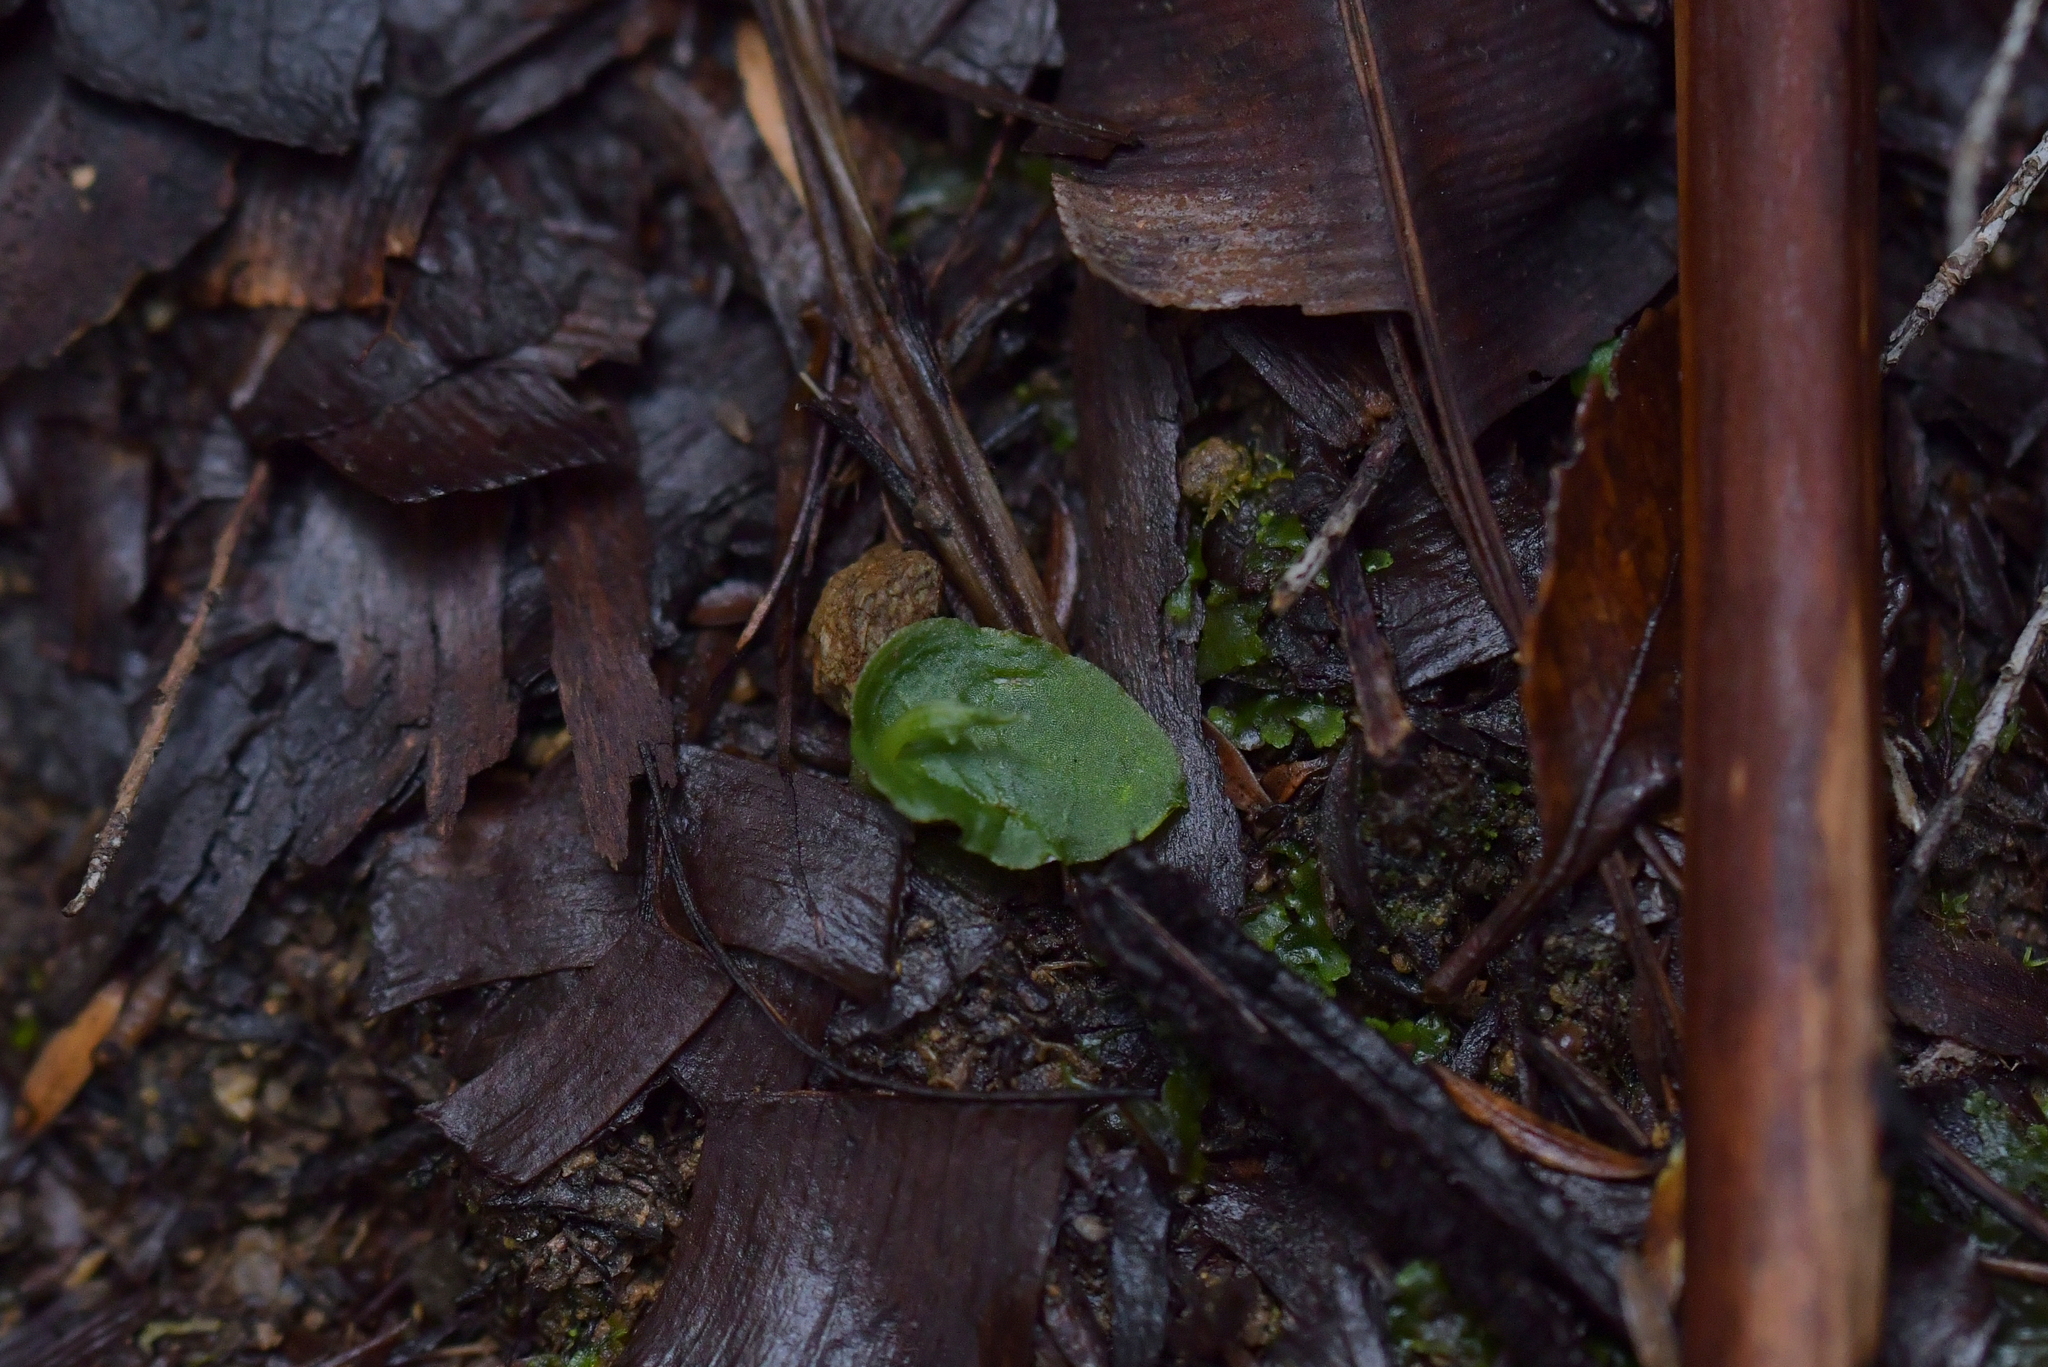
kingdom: Plantae
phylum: Tracheophyta
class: Liliopsida
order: Asparagales
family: Orchidaceae
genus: Corybas
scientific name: Corybas oblongus
